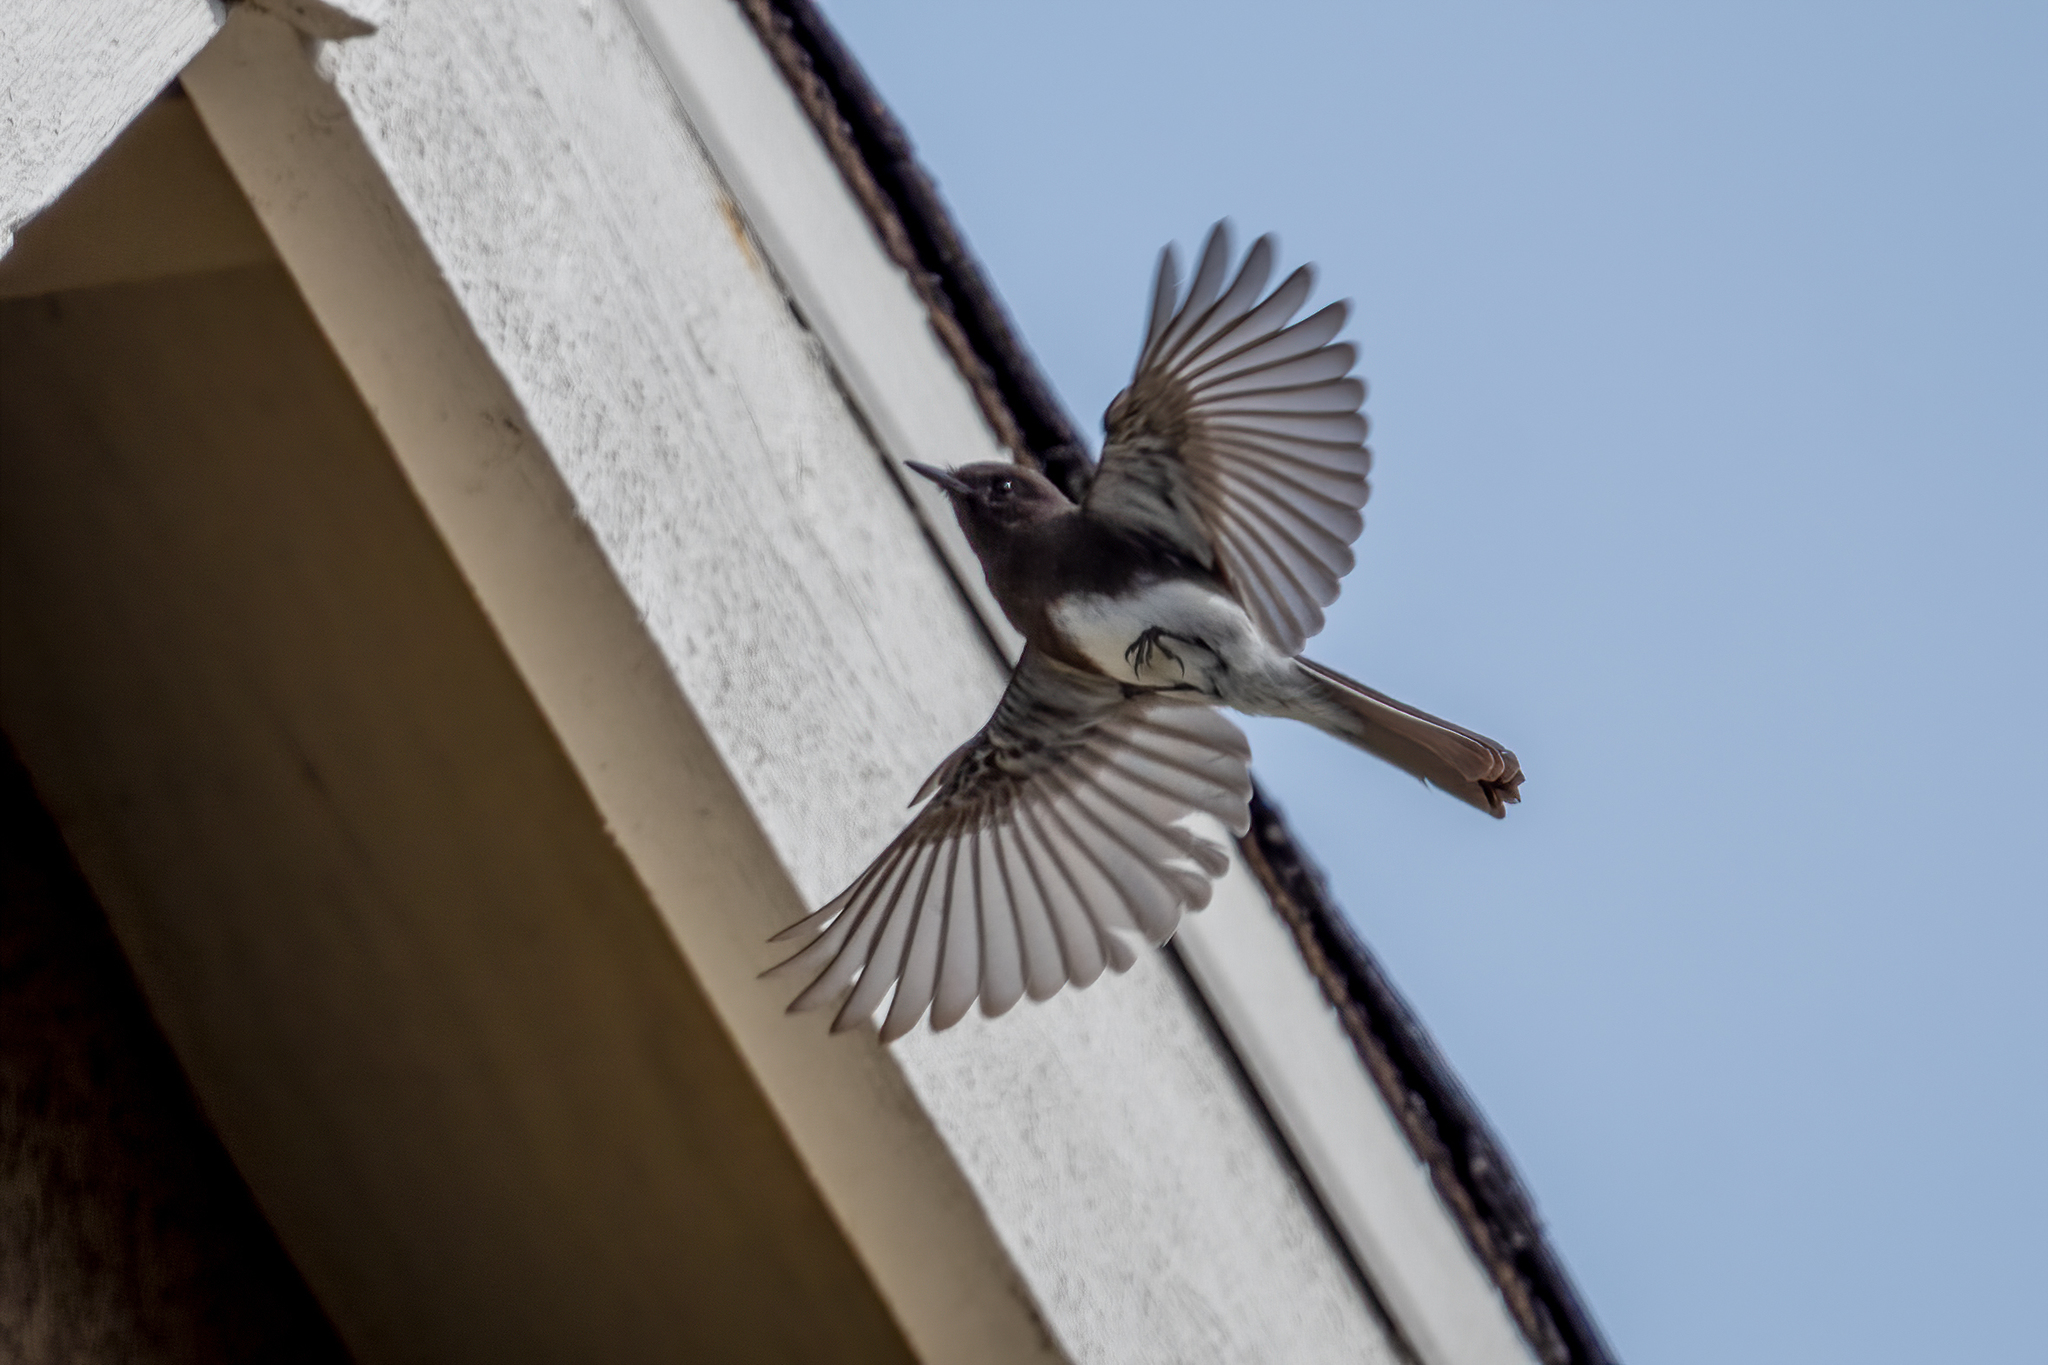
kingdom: Animalia
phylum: Chordata
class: Aves
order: Passeriformes
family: Tyrannidae
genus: Sayornis
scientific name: Sayornis nigricans
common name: Black phoebe
